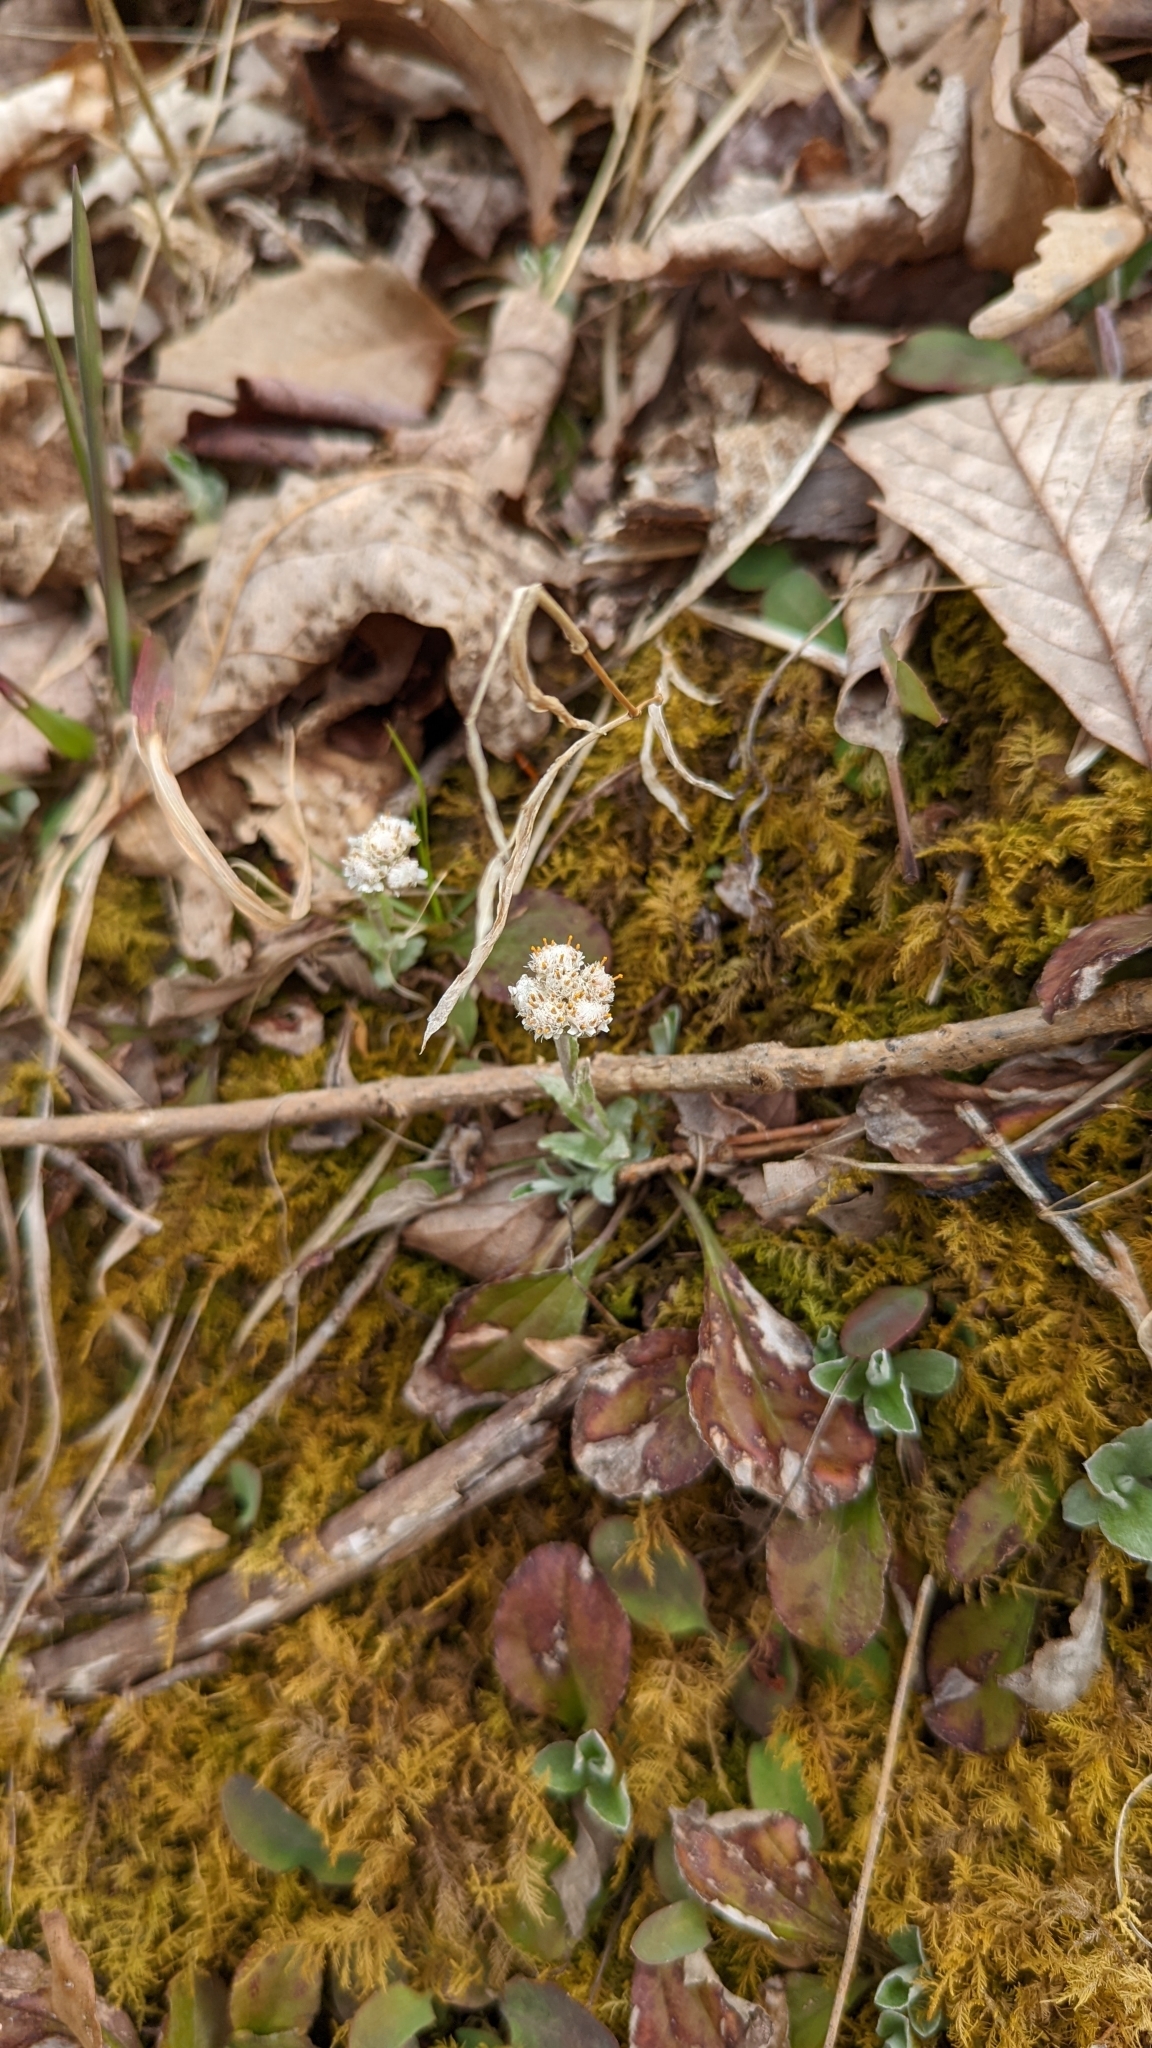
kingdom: Plantae
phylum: Tracheophyta
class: Magnoliopsida
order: Asterales
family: Asteraceae
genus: Antennaria
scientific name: Antennaria plantaginifolia
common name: Plantain-leaved pussytoes
